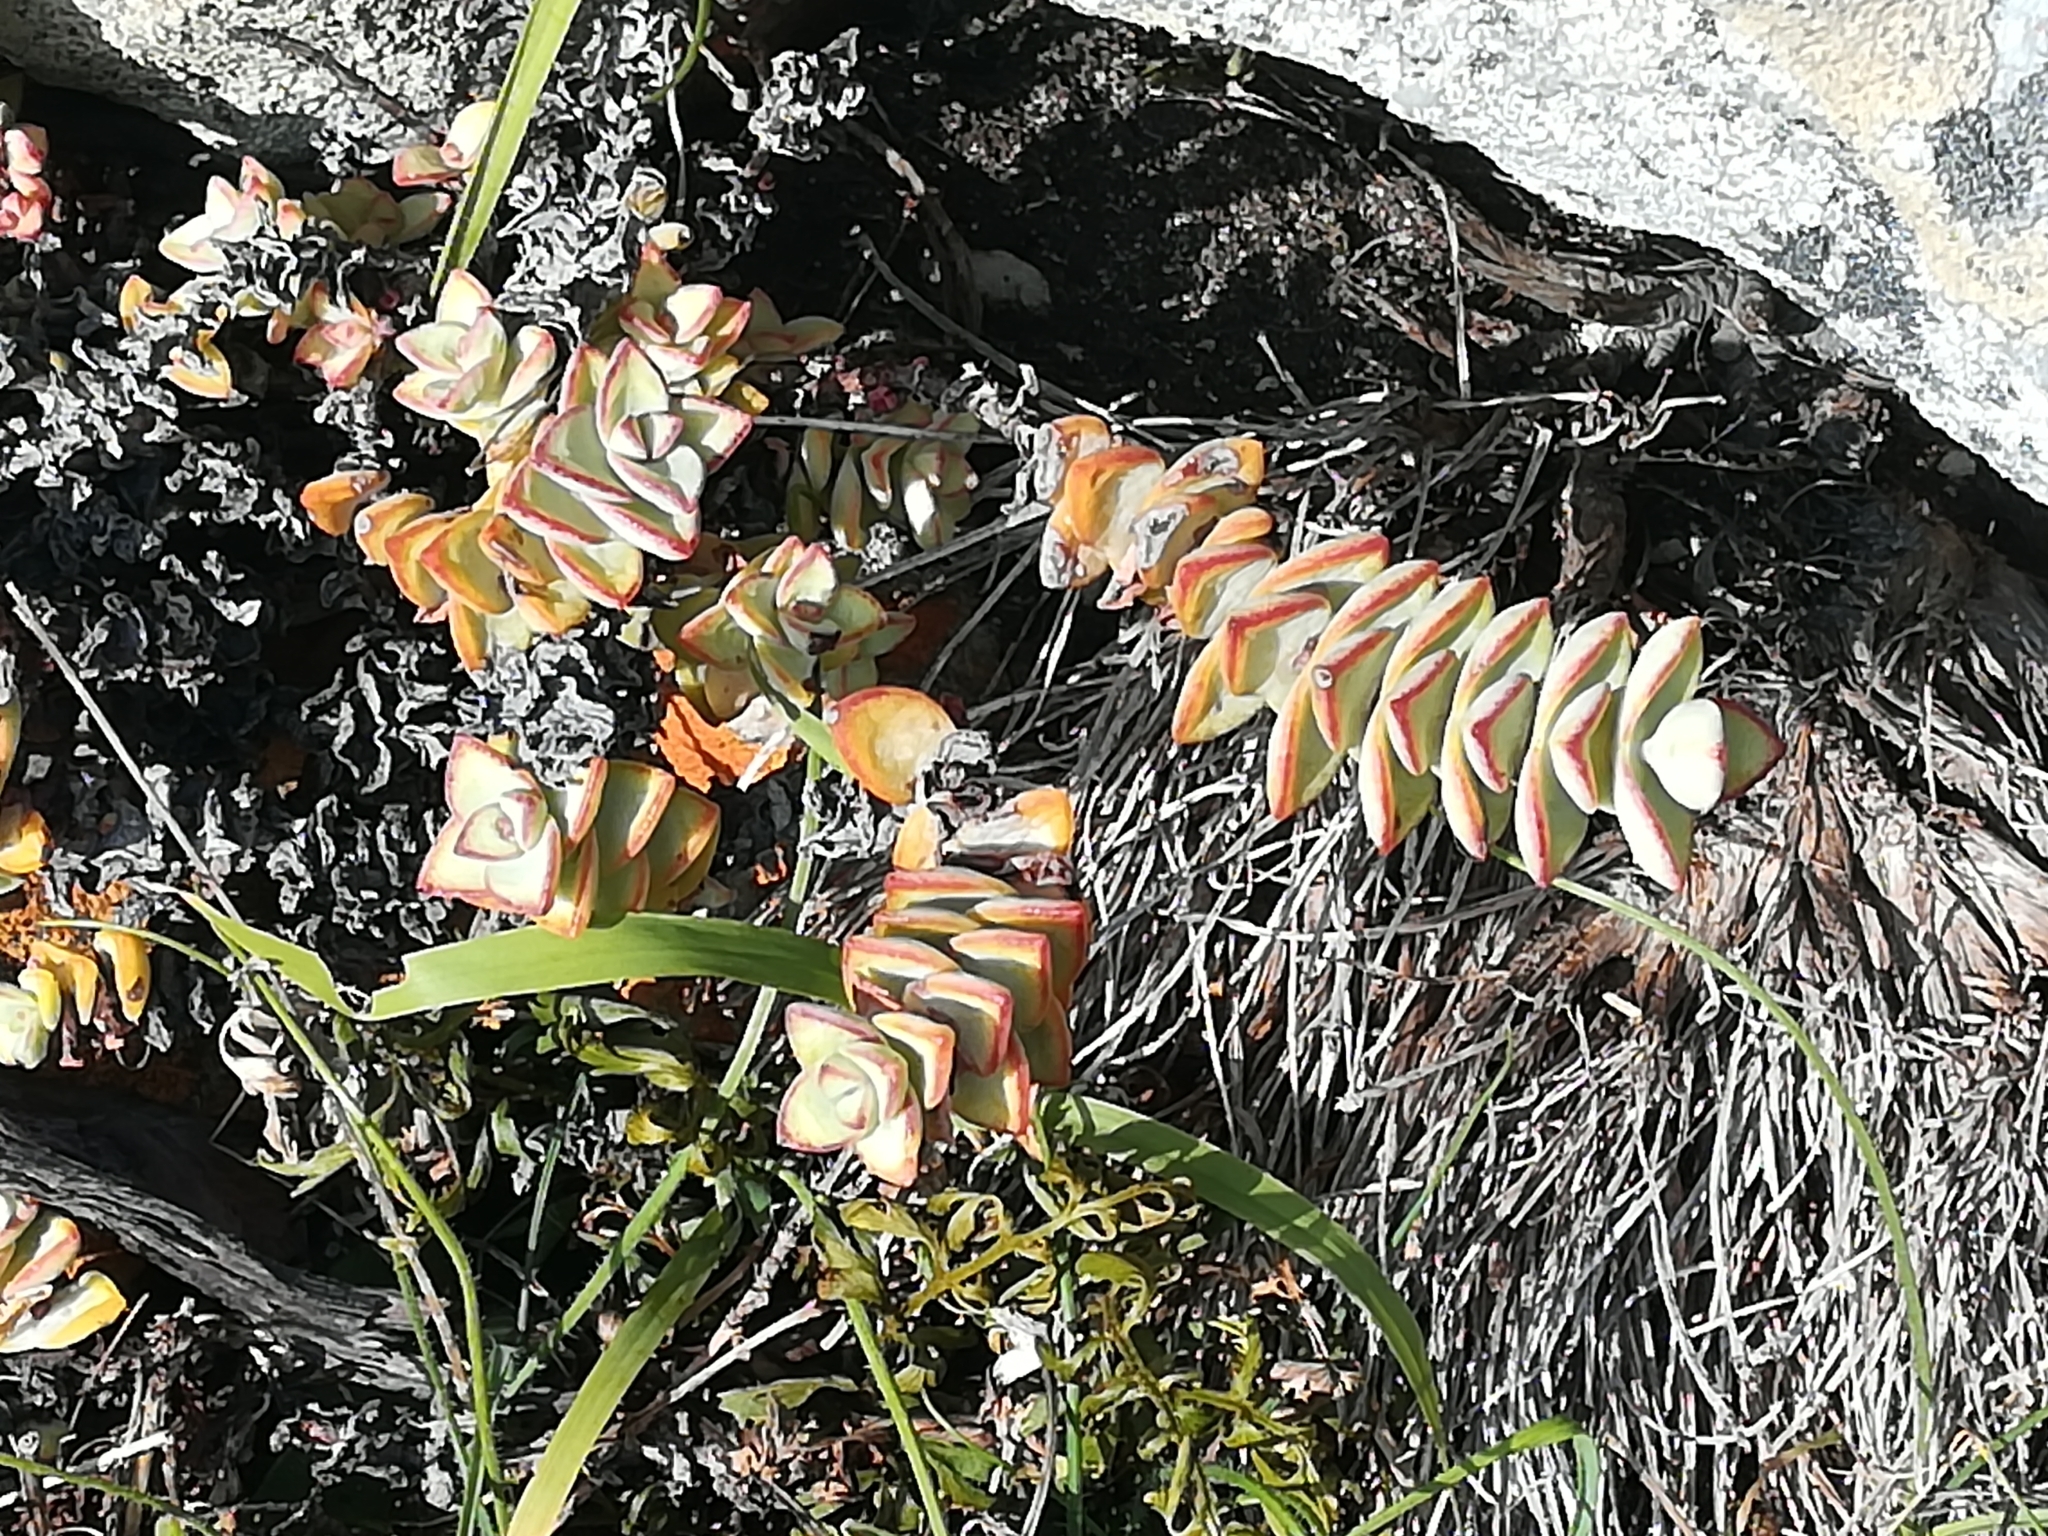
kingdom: Plantae
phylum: Tracheophyta
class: Magnoliopsida
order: Saxifragales
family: Crassulaceae
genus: Crassula
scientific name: Crassula rupestris
